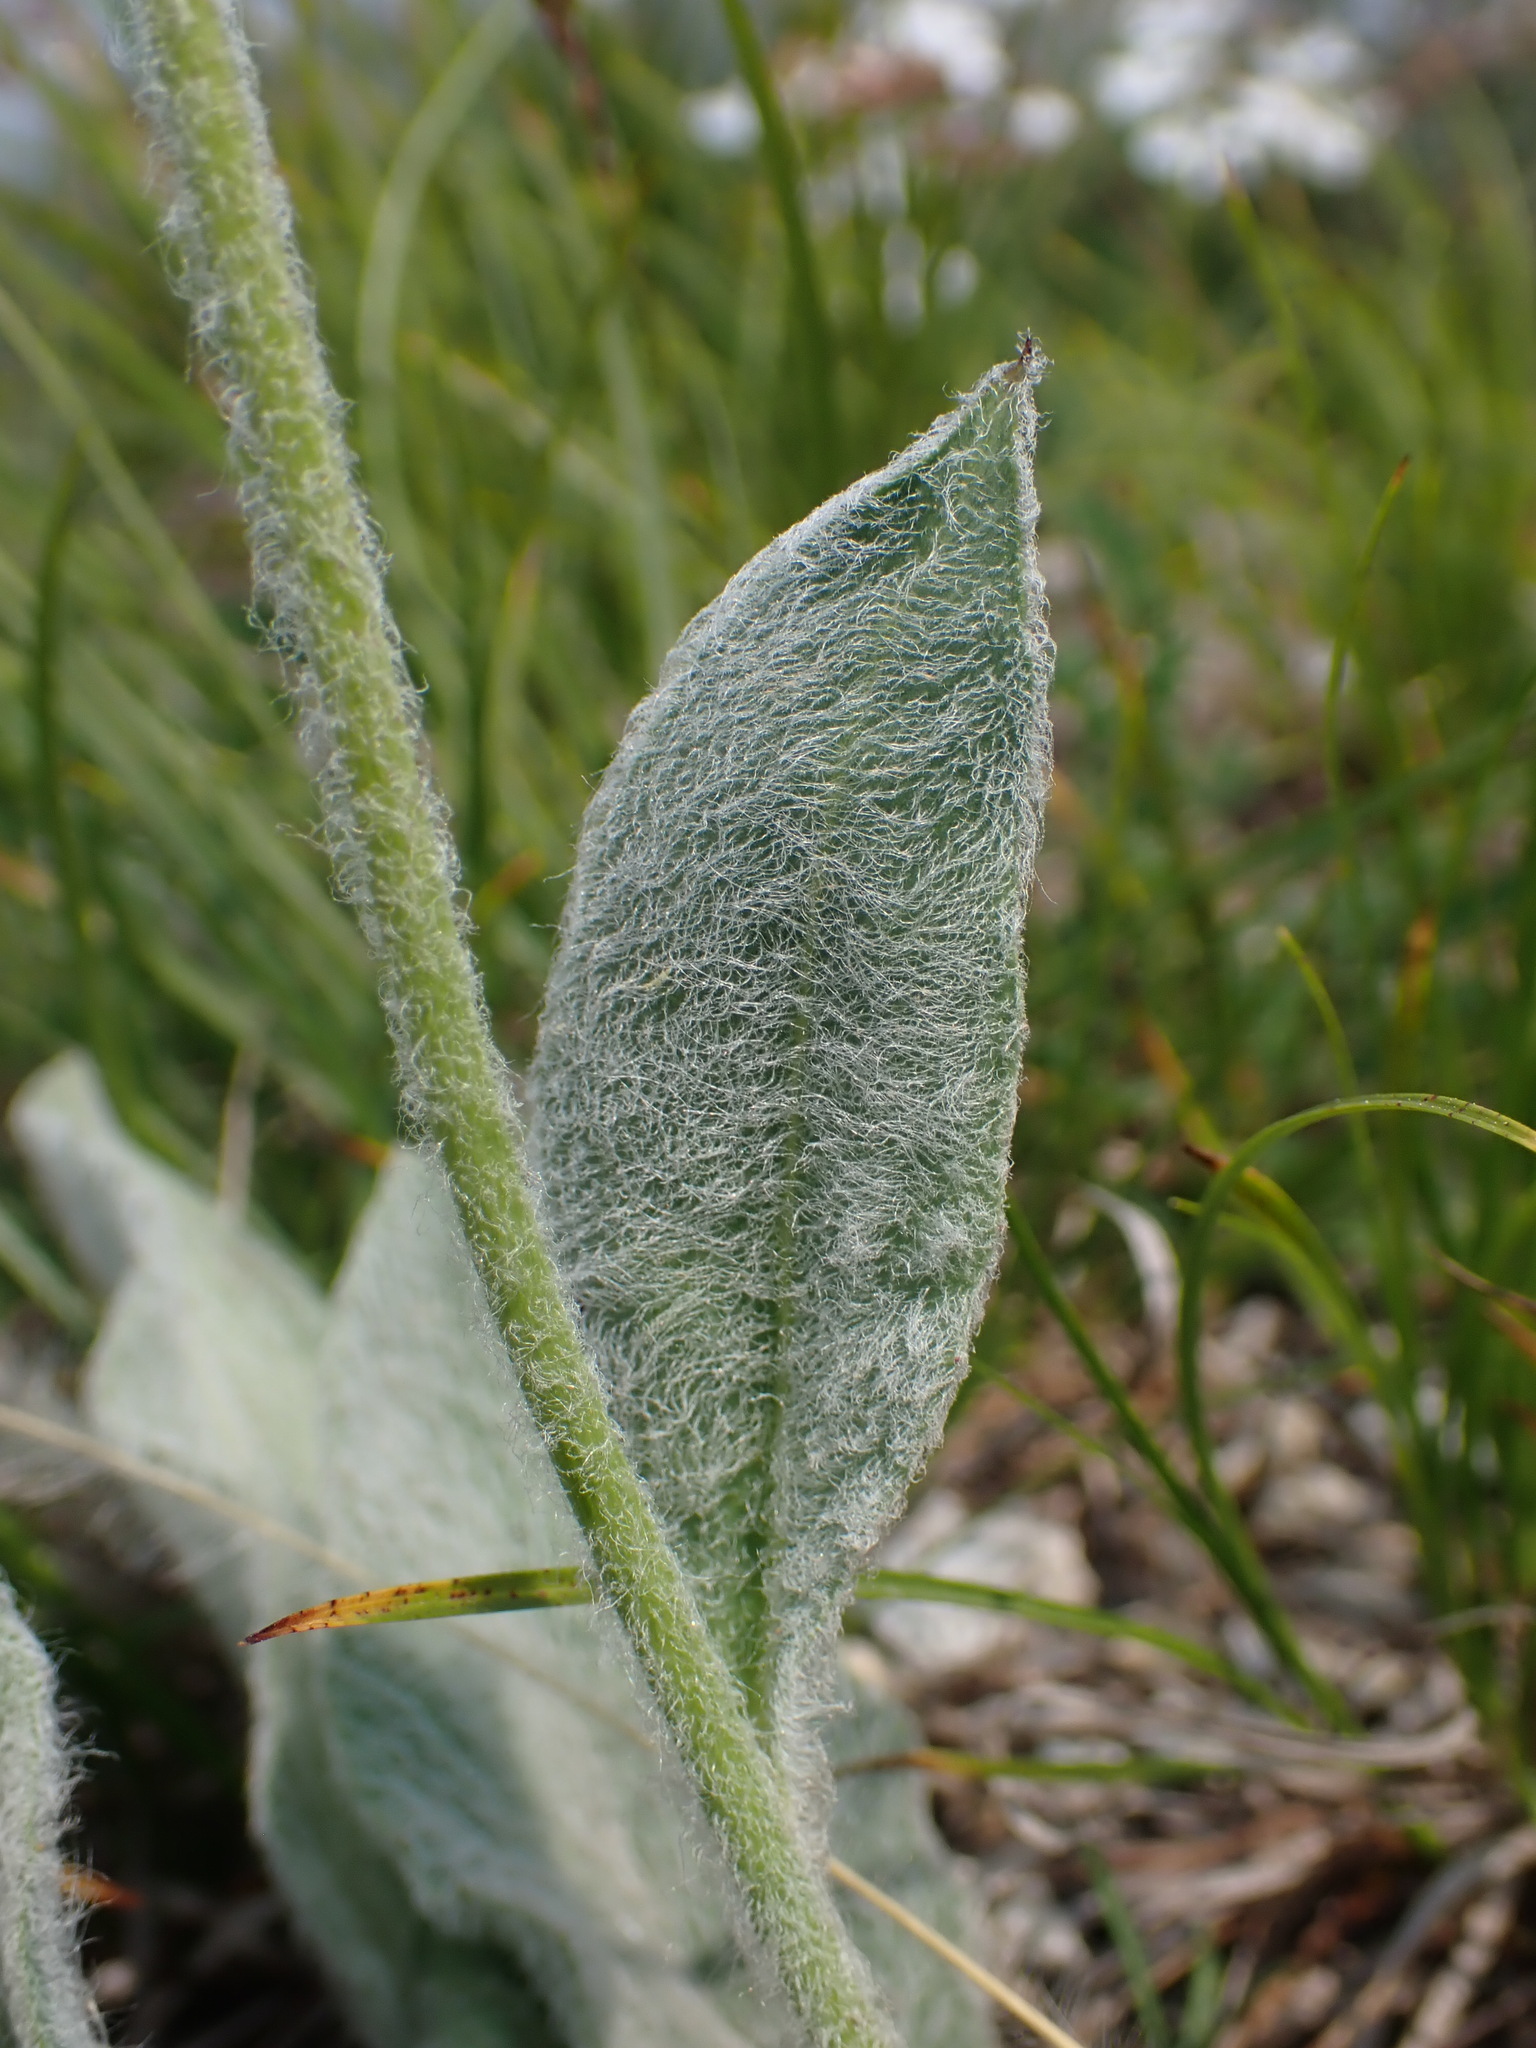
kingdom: Plantae
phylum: Tracheophyta
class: Magnoliopsida
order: Asterales
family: Asteraceae
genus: Hieracium
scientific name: Hieracium tomentosum
